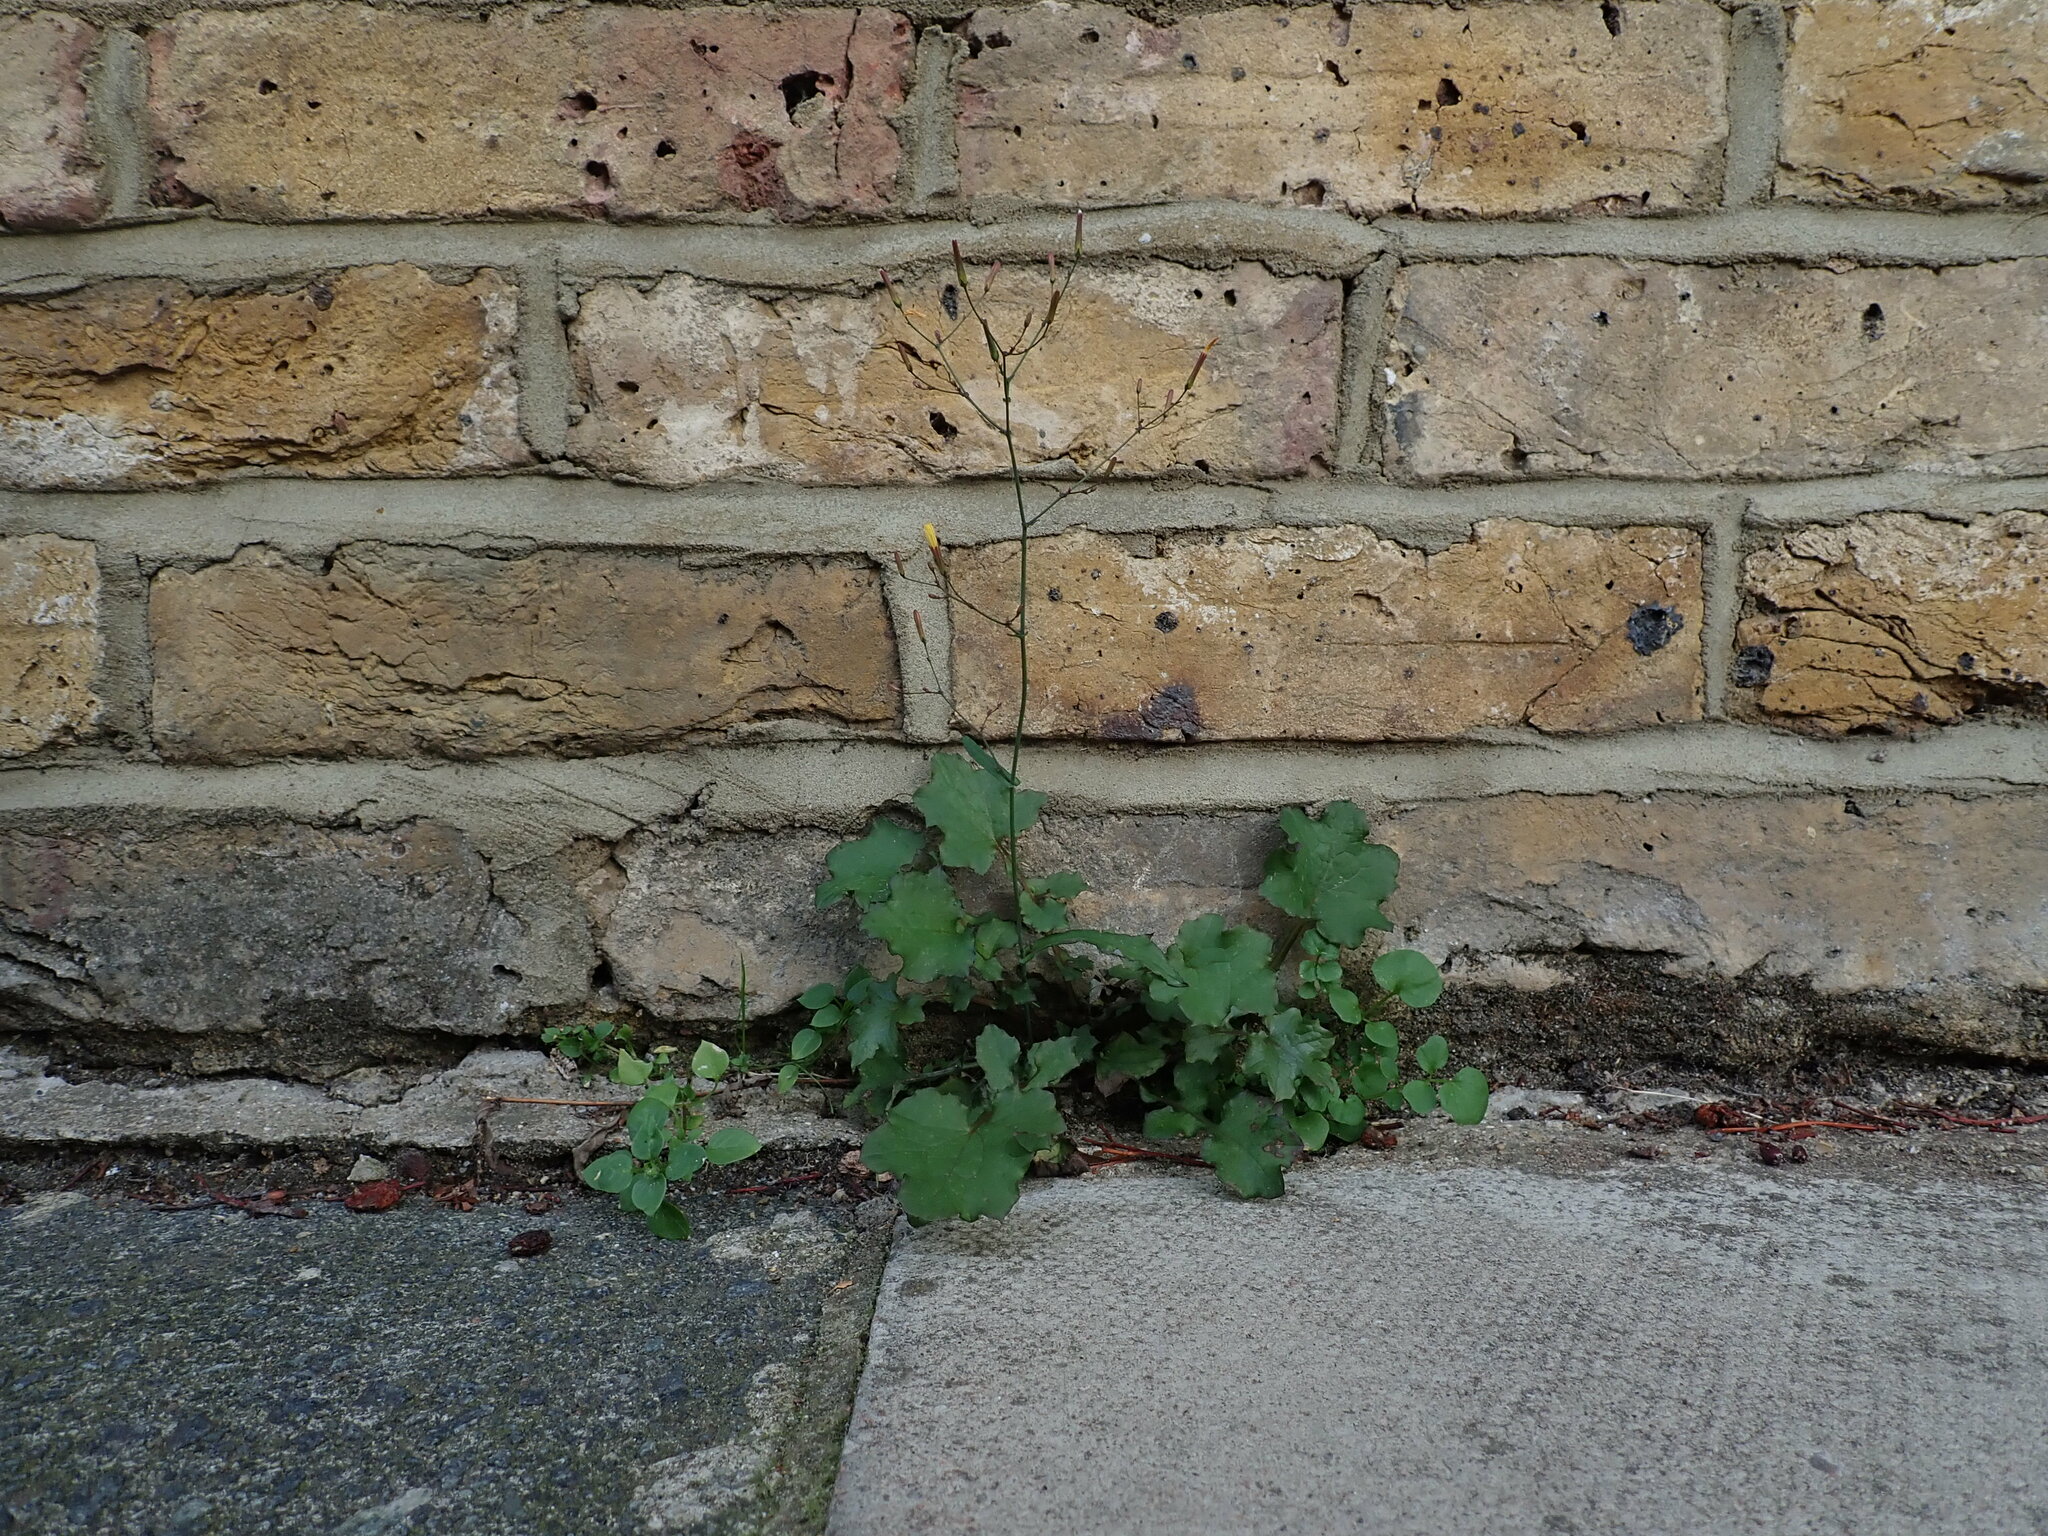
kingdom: Plantae
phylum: Tracheophyta
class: Magnoliopsida
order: Asterales
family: Asteraceae
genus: Mycelis
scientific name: Mycelis muralis
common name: Wall lettuce
